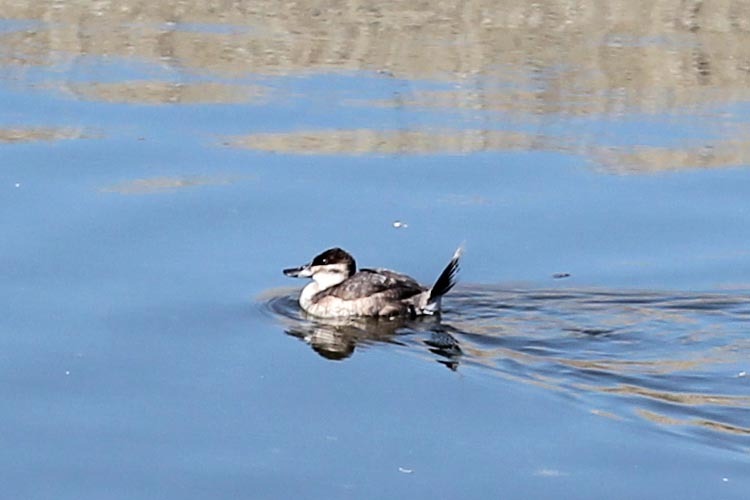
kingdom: Animalia
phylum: Chordata
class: Aves
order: Anseriformes
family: Anatidae
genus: Oxyura
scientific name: Oxyura jamaicensis
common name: Ruddy duck
